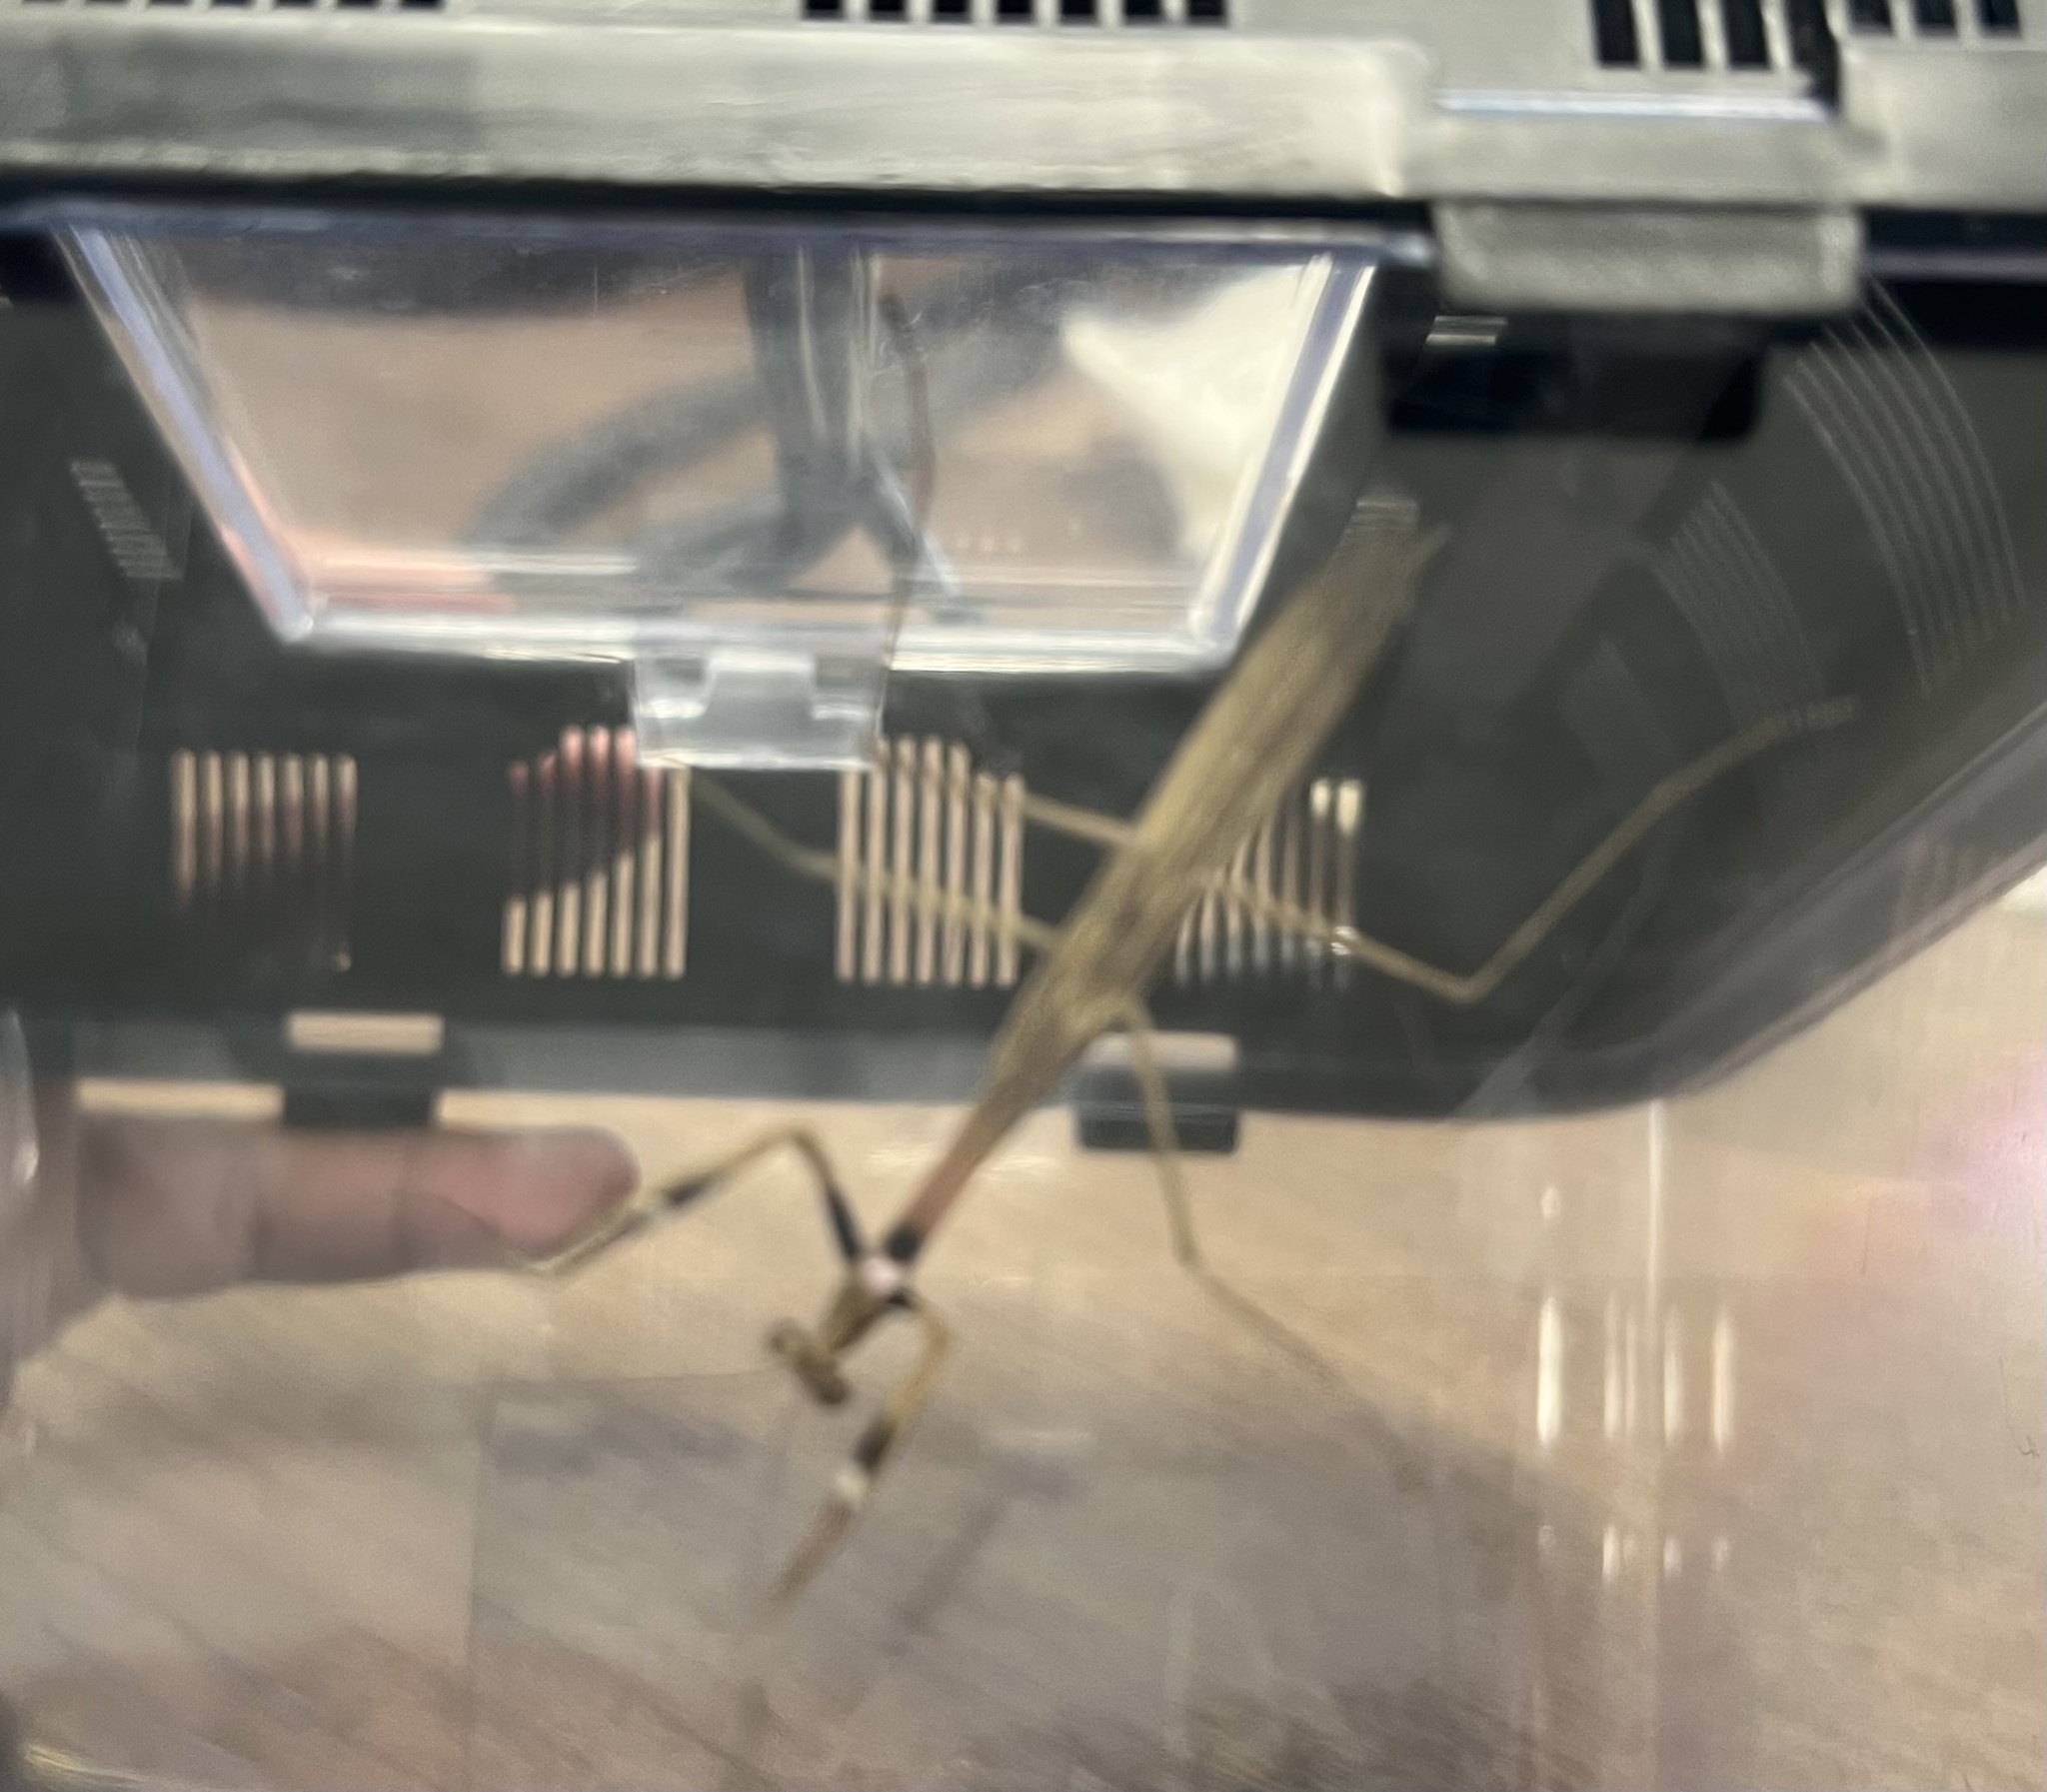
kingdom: Animalia
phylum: Arthropoda
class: Insecta
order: Mantodea
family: Mantidae
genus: Stagmomantis
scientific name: Stagmomantis carolina
